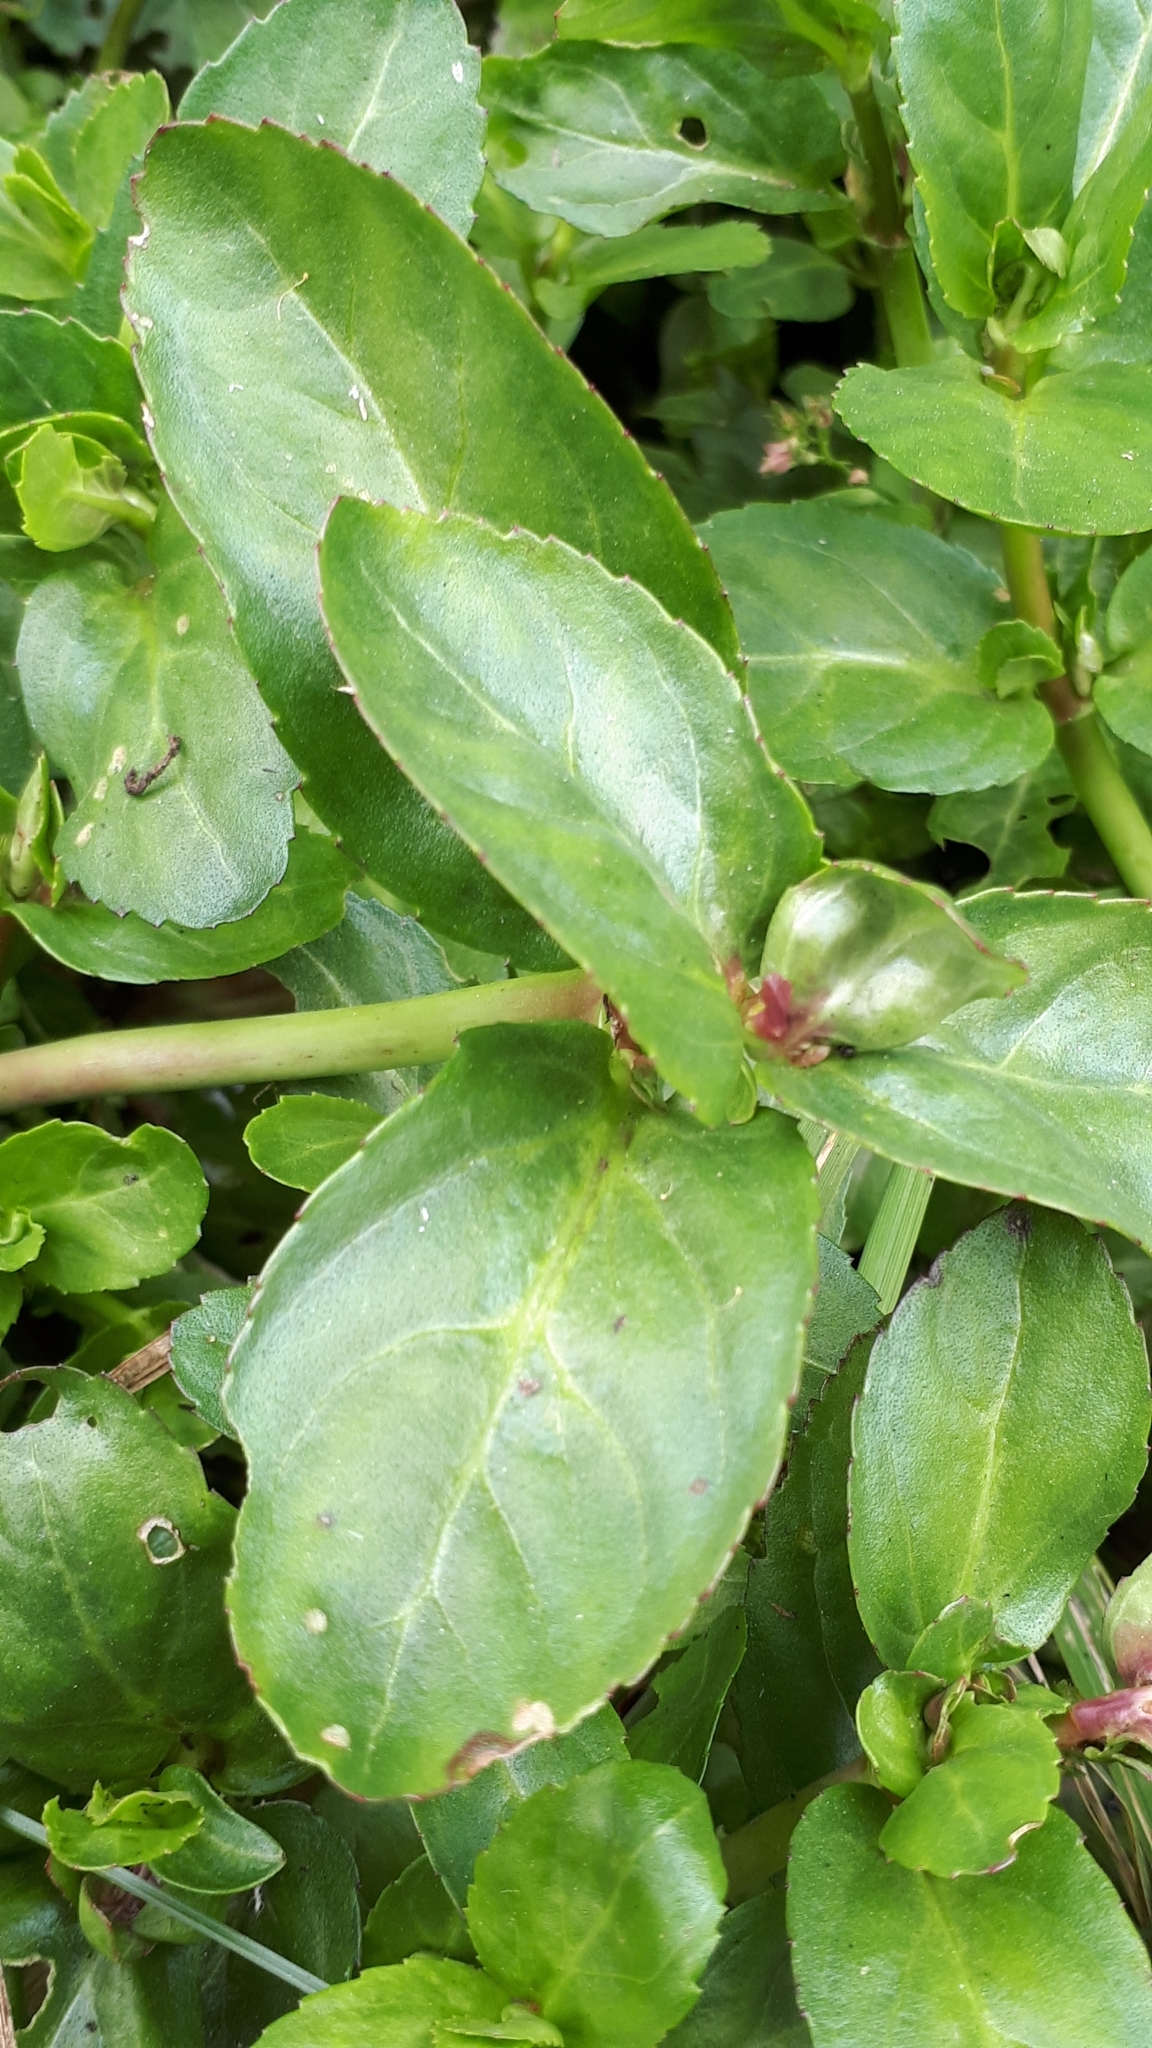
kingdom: Plantae
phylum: Tracheophyta
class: Magnoliopsida
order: Lamiales
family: Plantaginaceae
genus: Veronica
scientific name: Veronica beccabunga
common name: Brooklime
